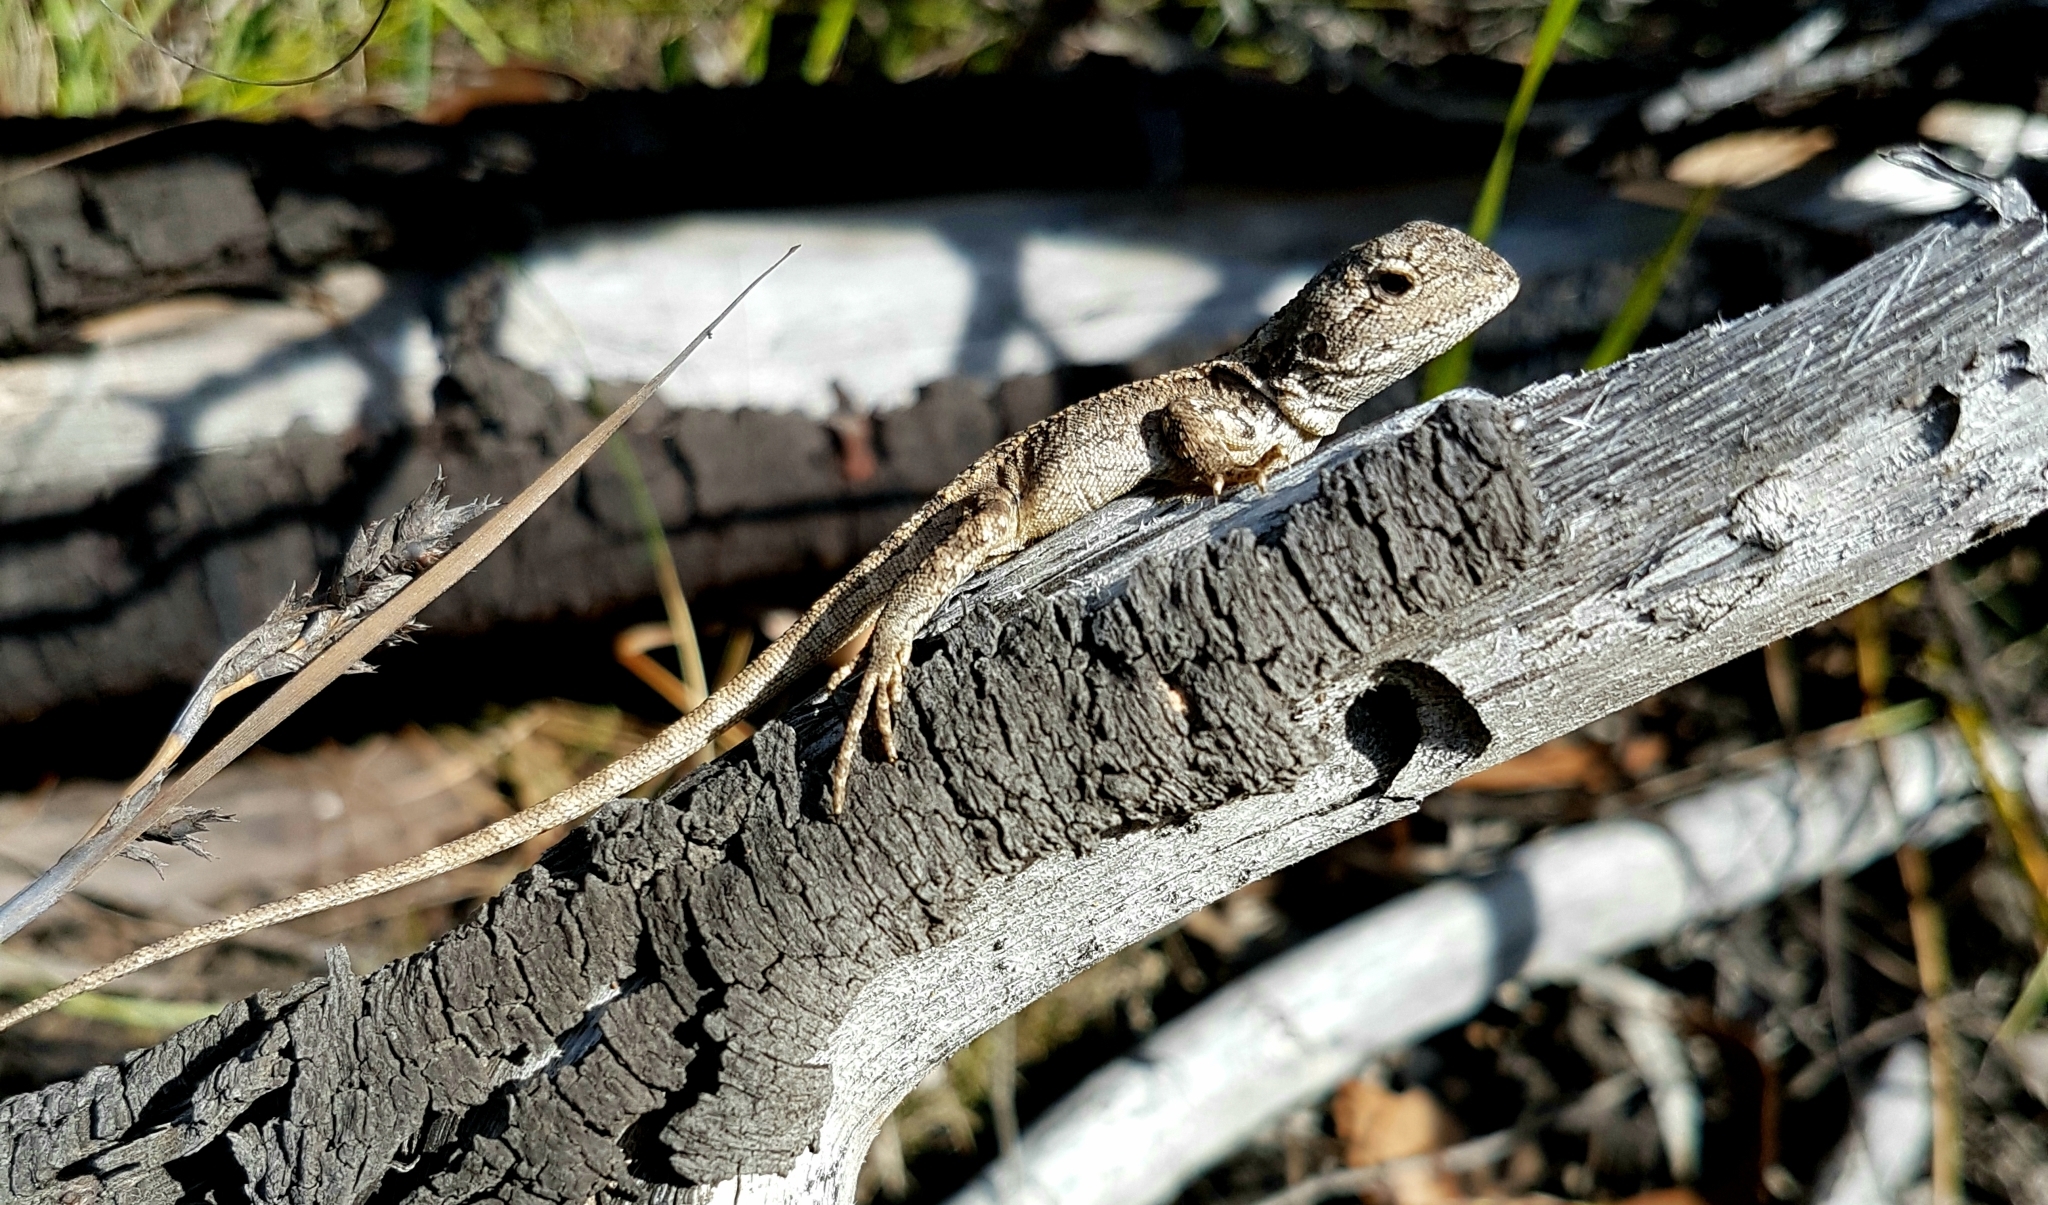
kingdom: Animalia
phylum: Chordata
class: Squamata
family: Agamidae
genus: Amphibolurus
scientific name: Amphibolurus muricatus
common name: Jacky lizard
